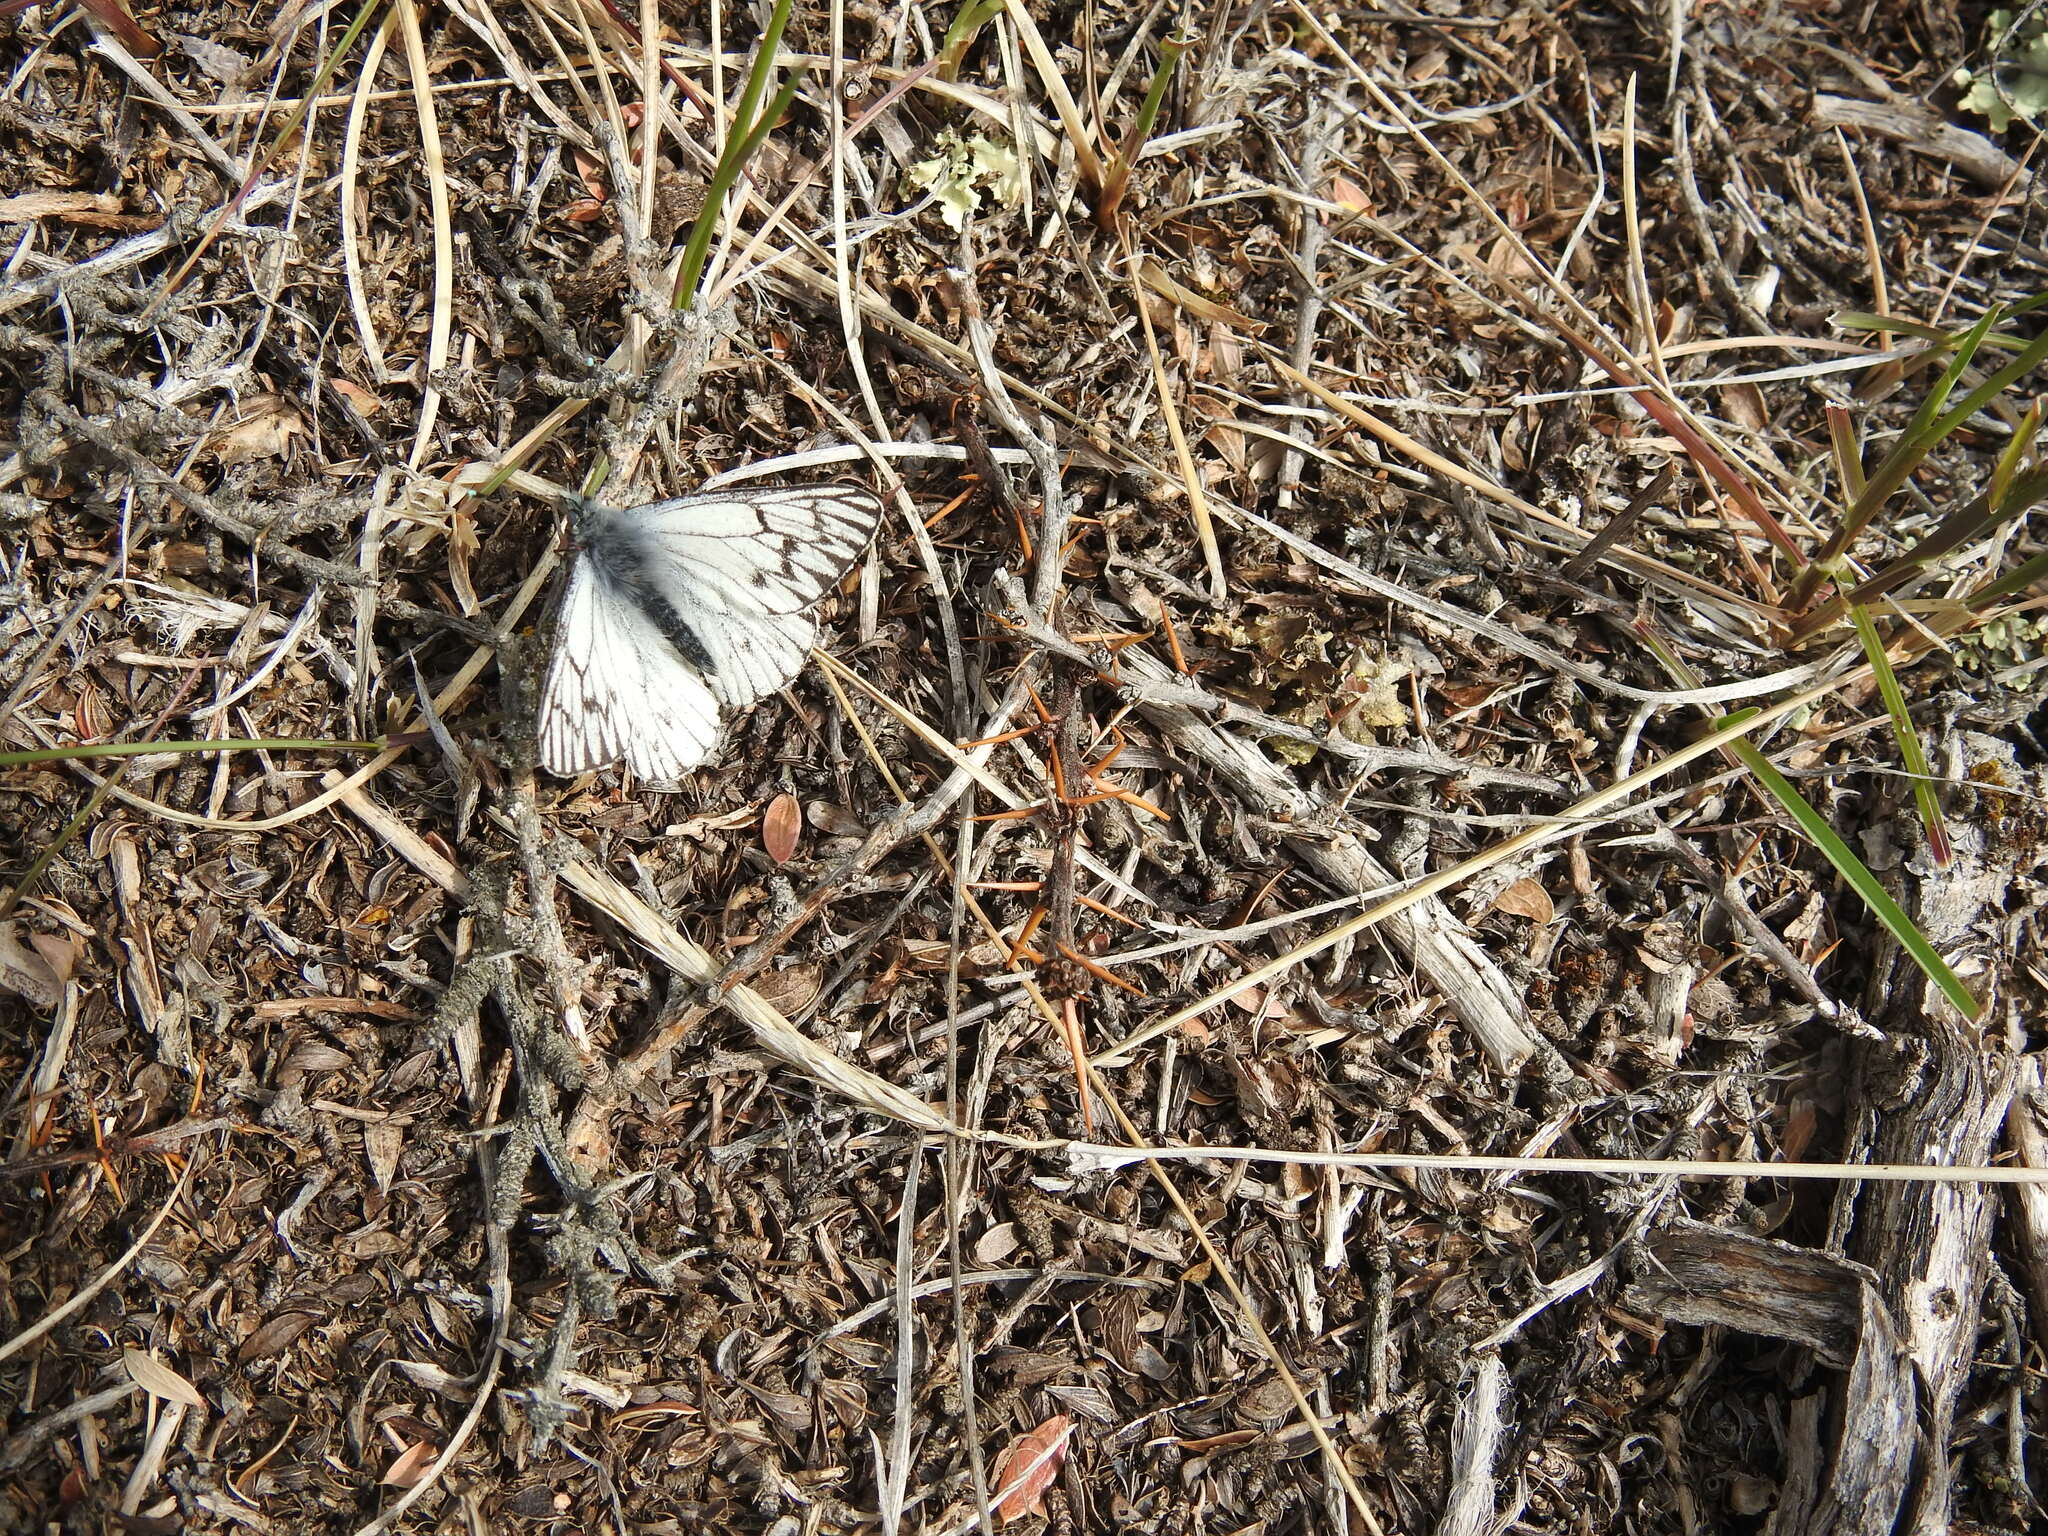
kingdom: Animalia
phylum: Arthropoda
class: Insecta
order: Lepidoptera
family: Pieridae
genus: Tatochila
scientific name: Tatochila theodice
